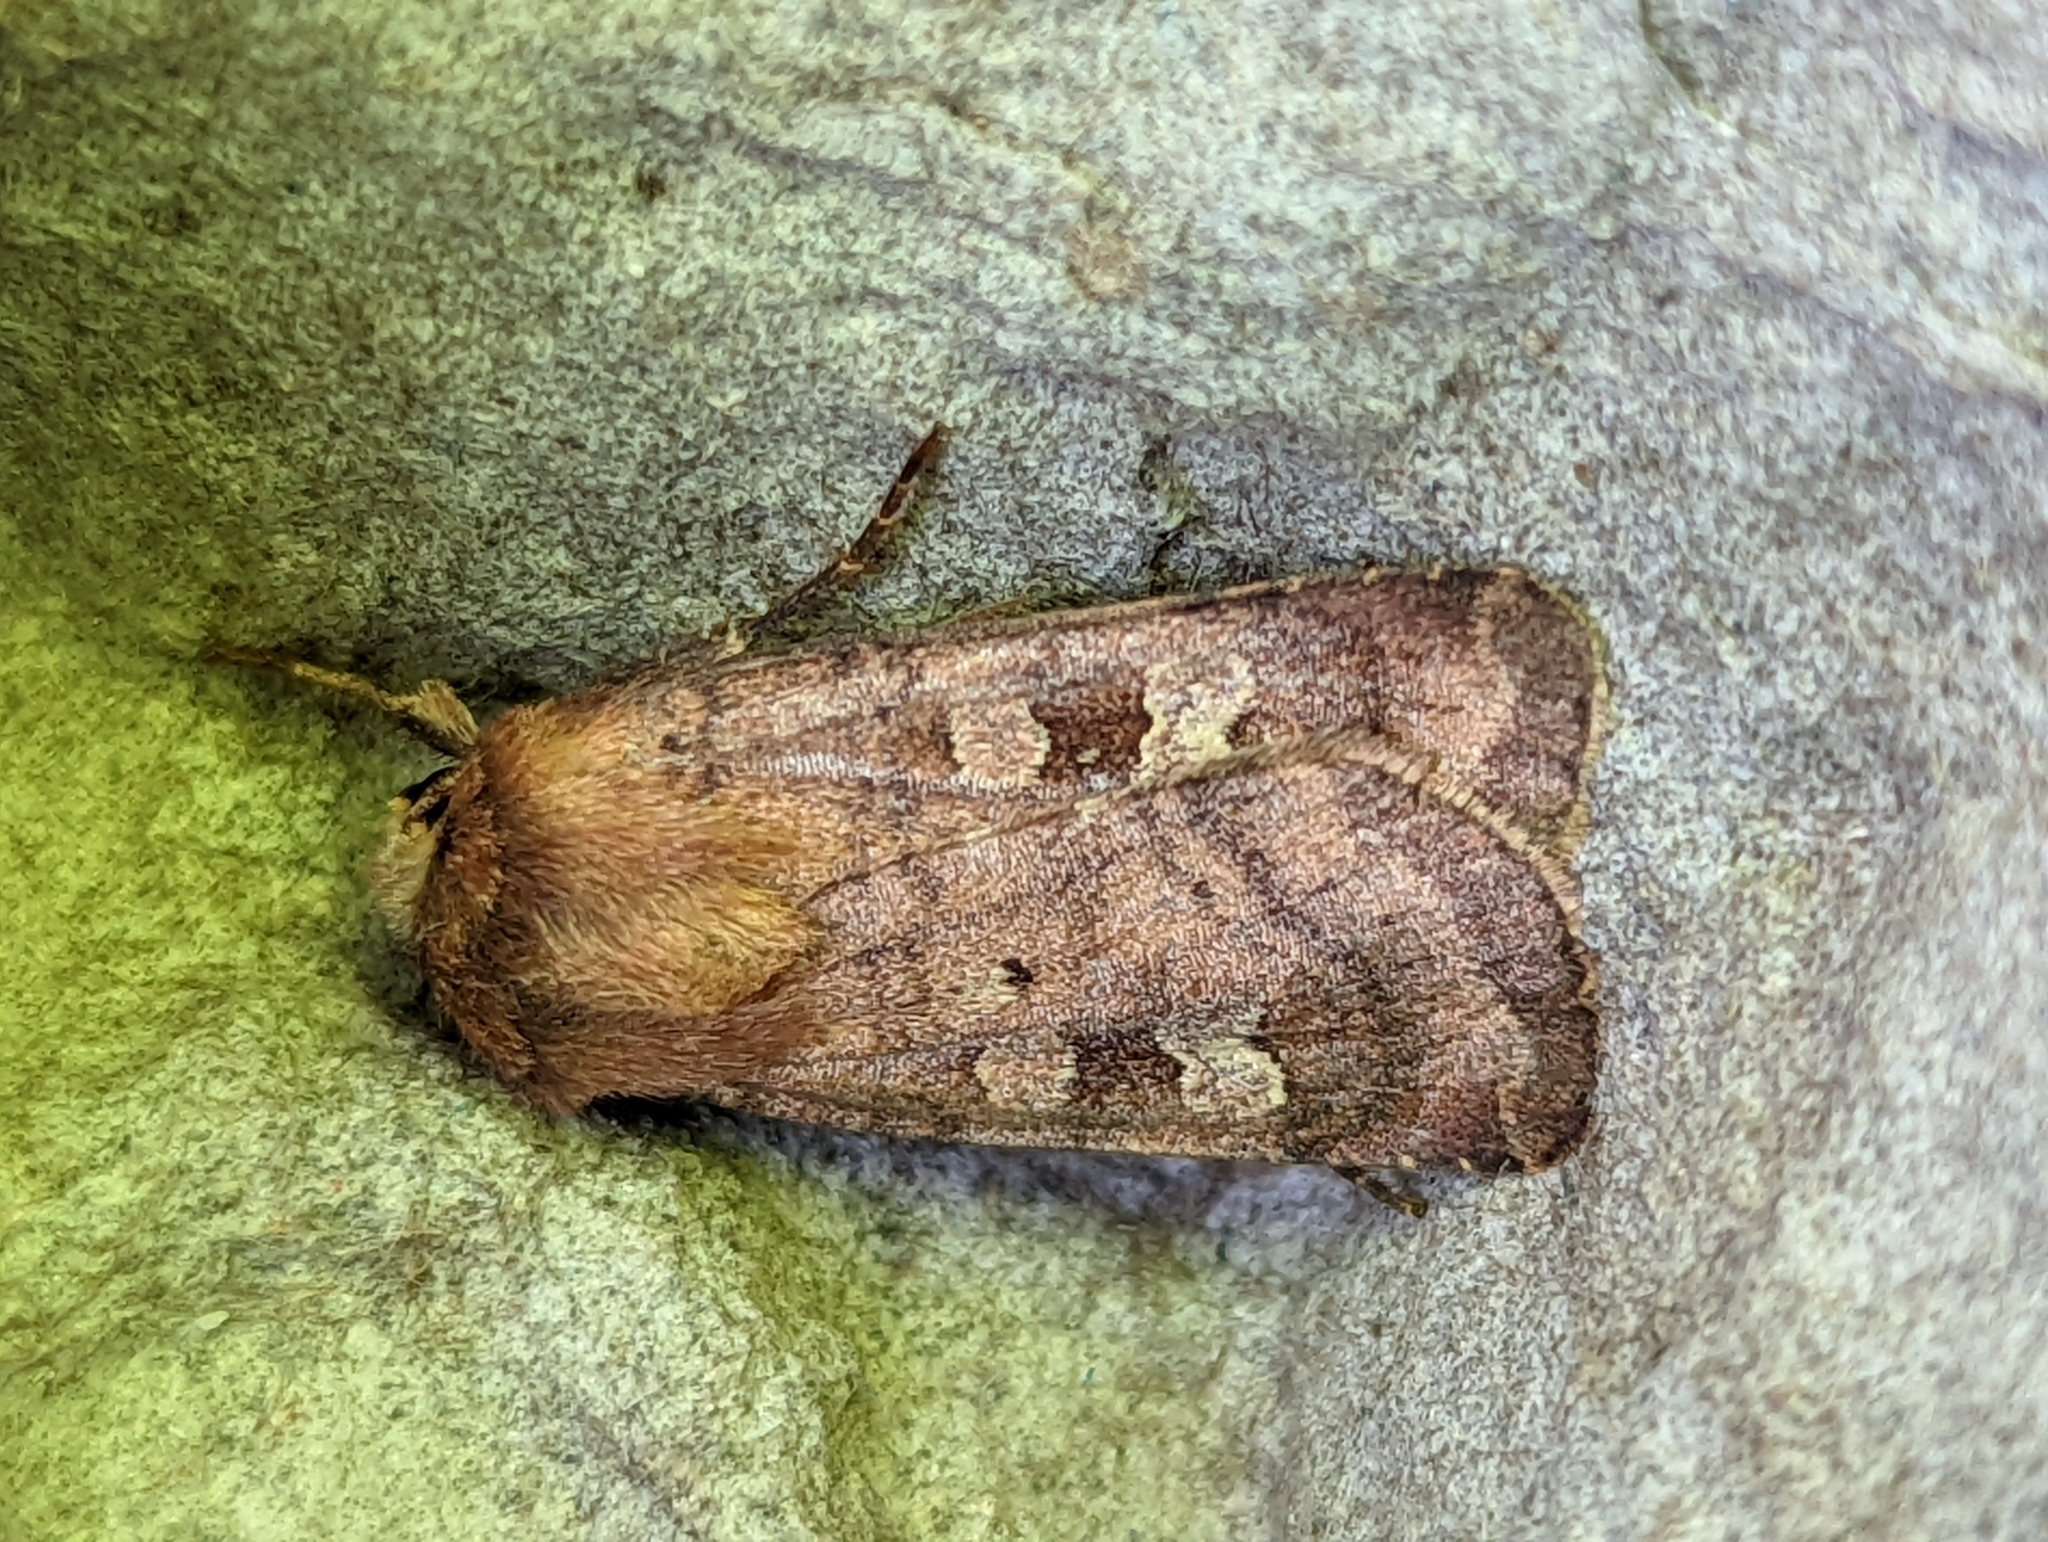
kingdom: Animalia
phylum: Arthropoda
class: Insecta
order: Lepidoptera
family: Noctuidae
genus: Diarsia
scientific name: Diarsia rubi
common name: Small square-spot
